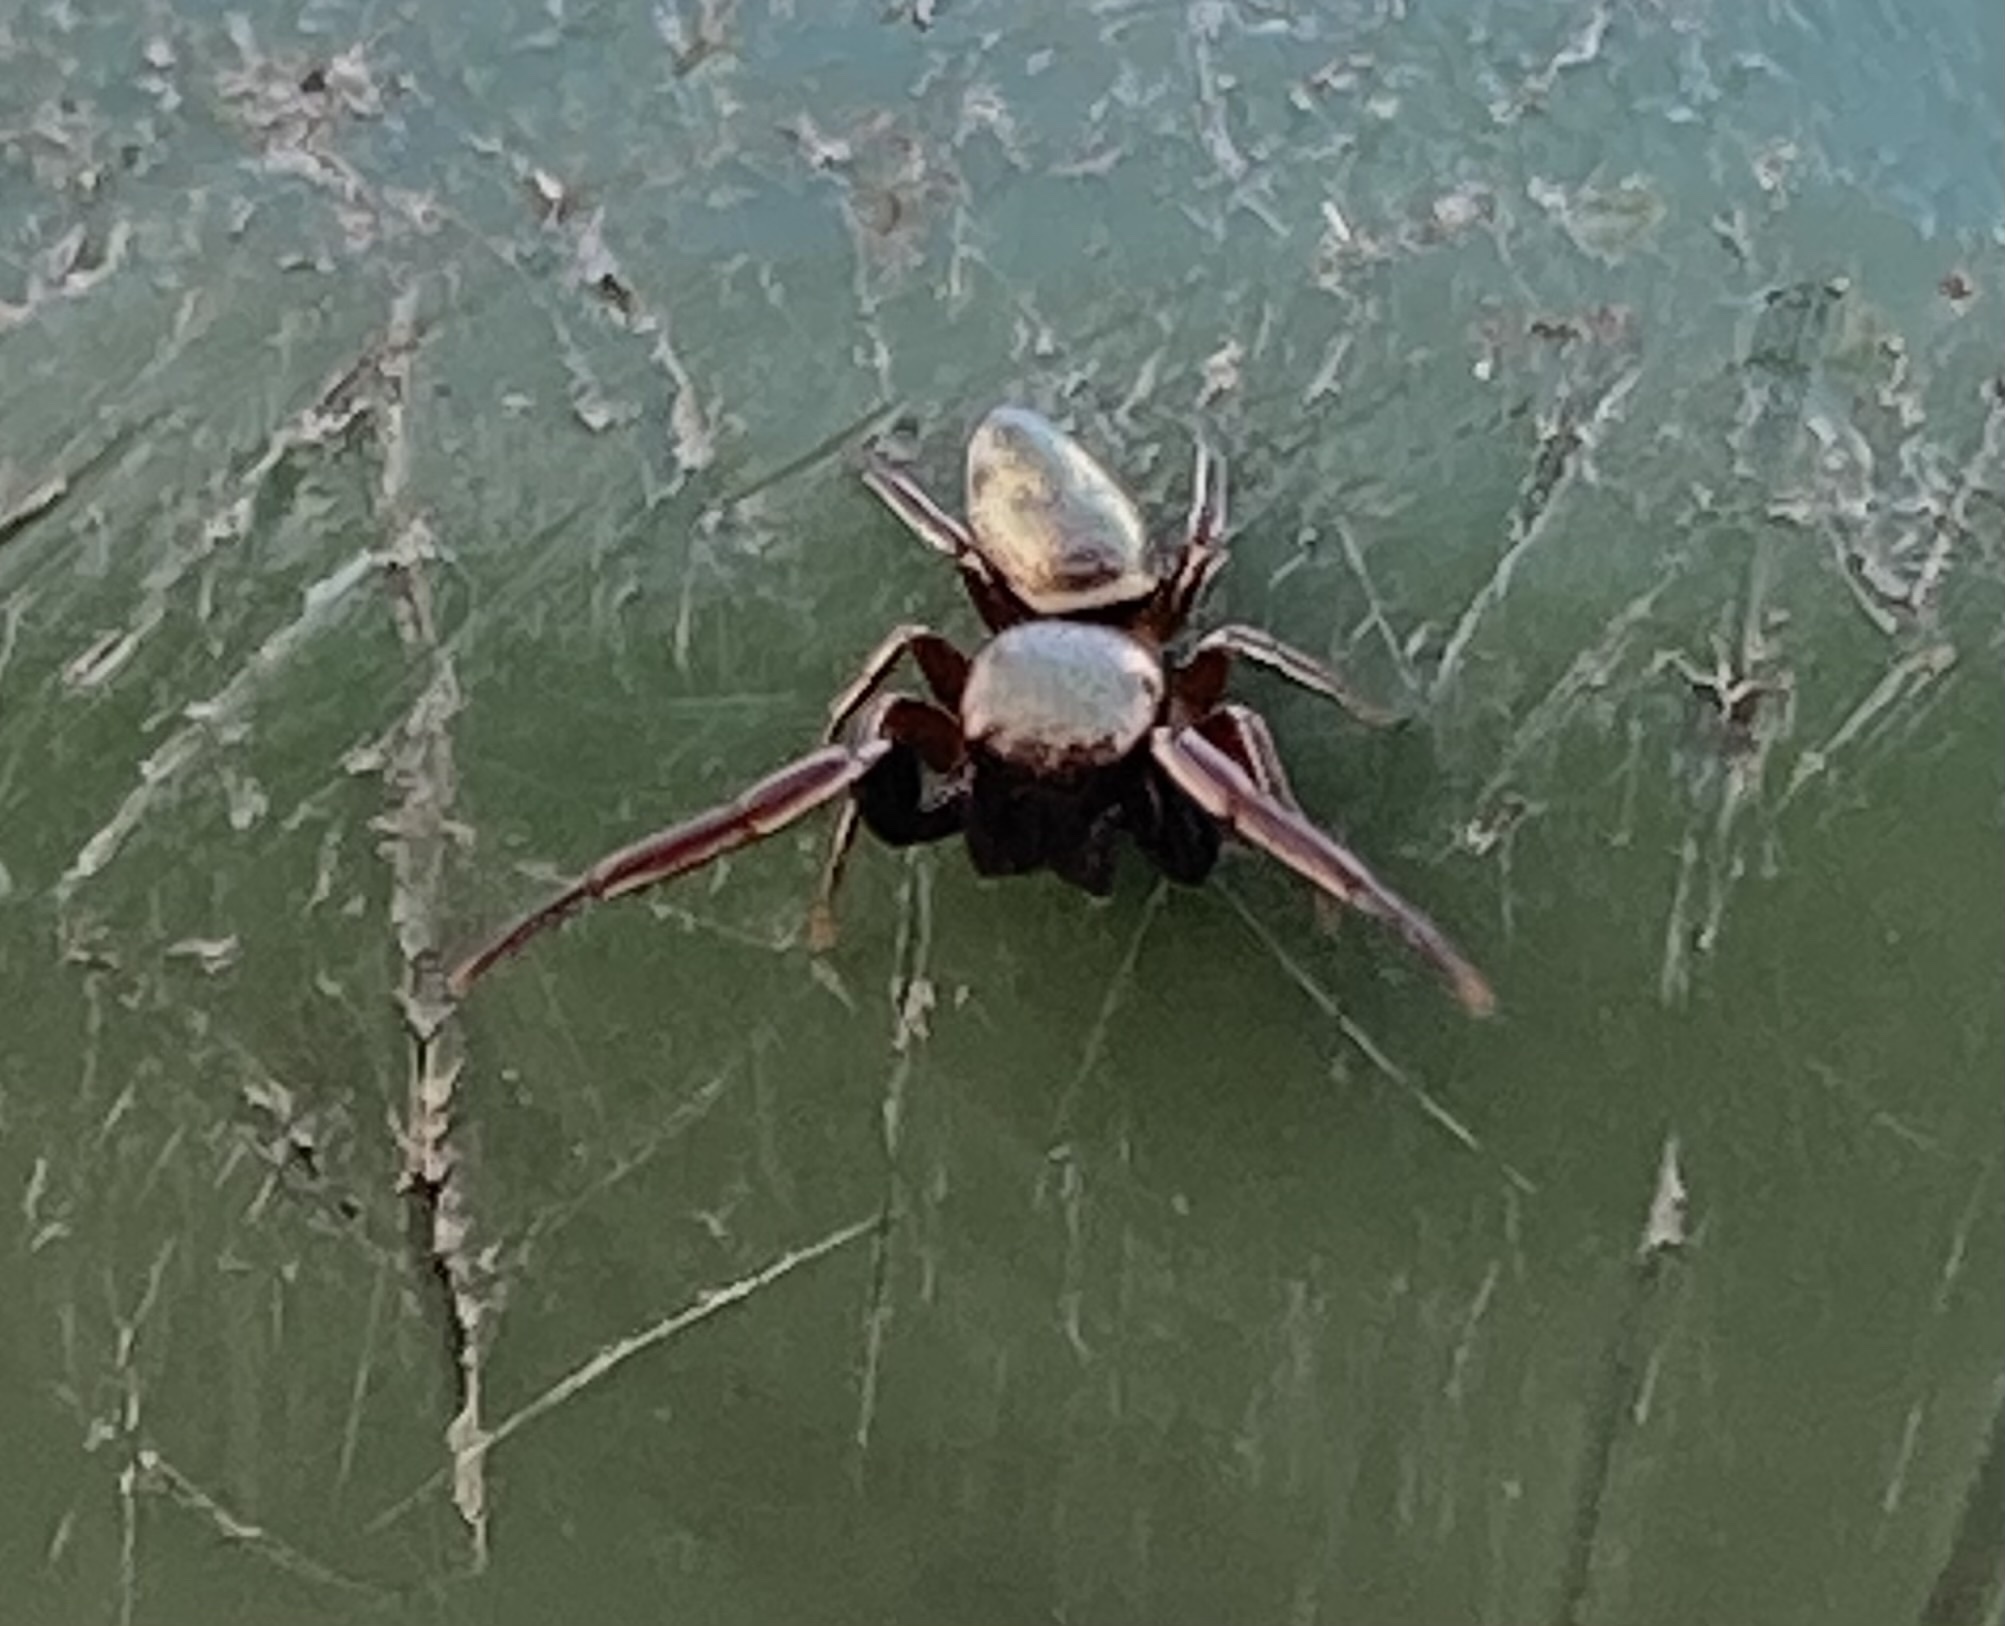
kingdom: Animalia
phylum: Arthropoda
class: Arachnida
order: Araneae
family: Salticidae
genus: Beata
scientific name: Beata wickhami
